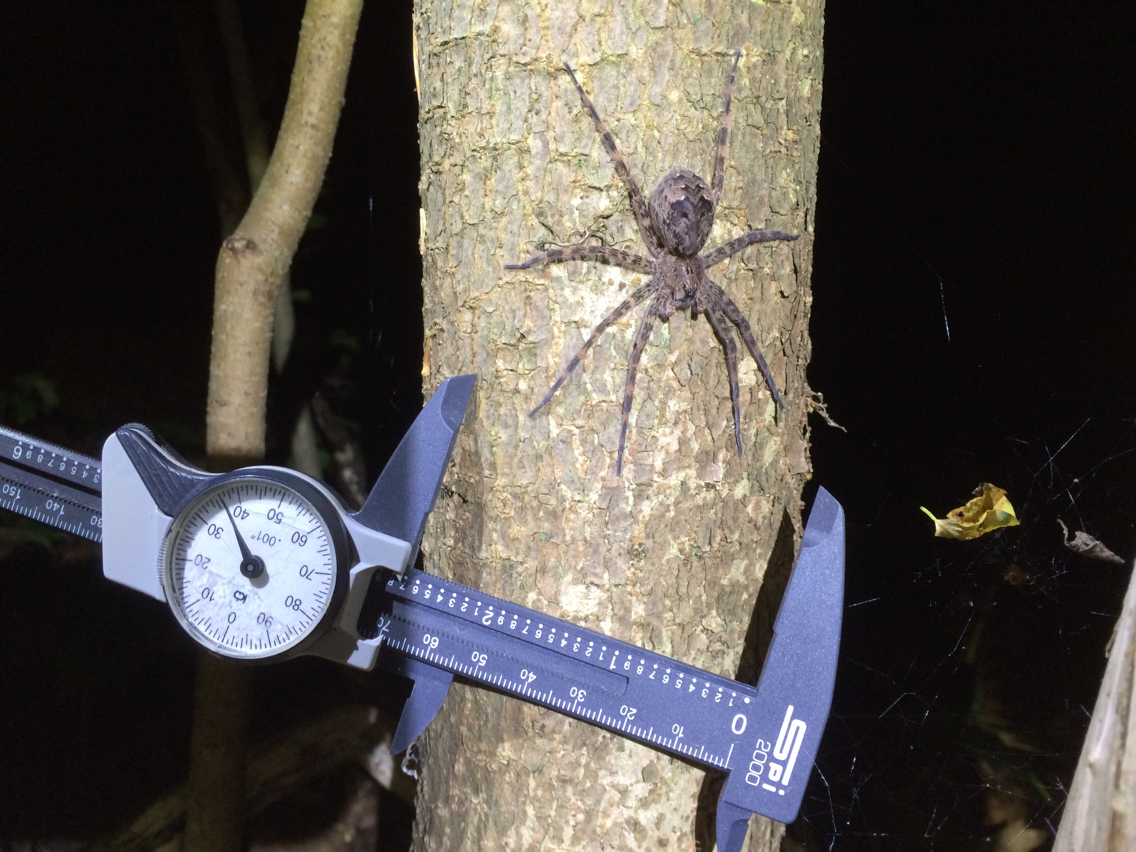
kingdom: Animalia
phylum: Arthropoda
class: Arachnida
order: Araneae
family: Pisauridae
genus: Dolomedes
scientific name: Dolomedes tenebrosus
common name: Dark fishing spider
